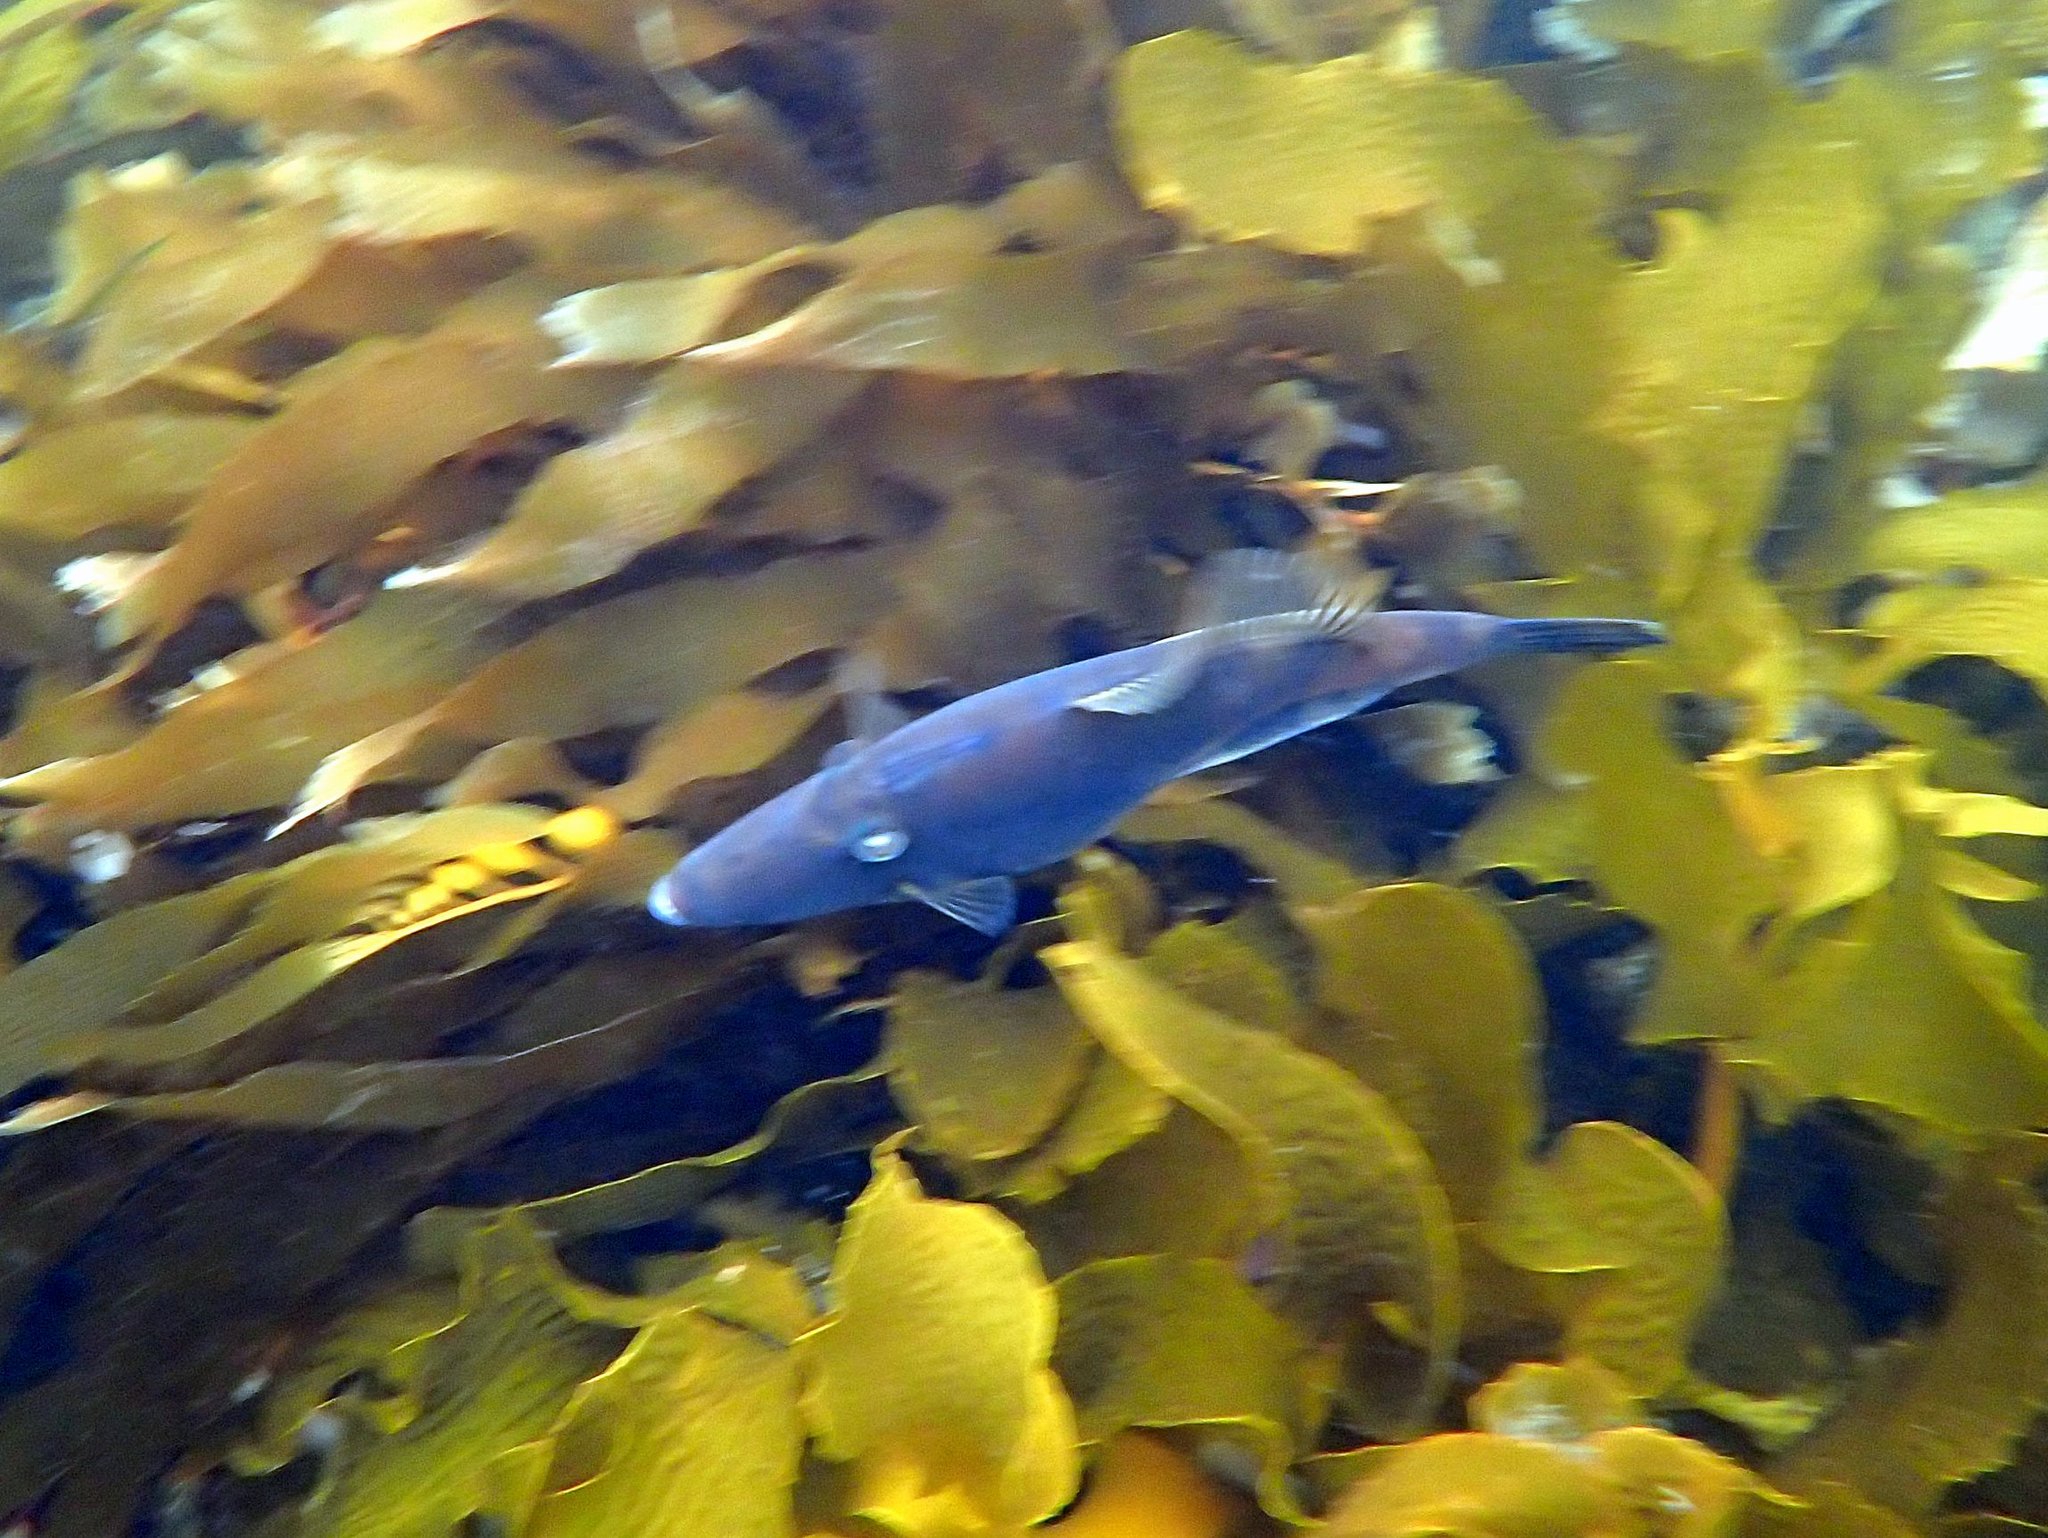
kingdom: Animalia
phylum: Chordata
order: Tetraodontiformes
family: Monacanthidae
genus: Acanthaluteres
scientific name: Acanthaluteres vittiger
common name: Brown leatherjacket
